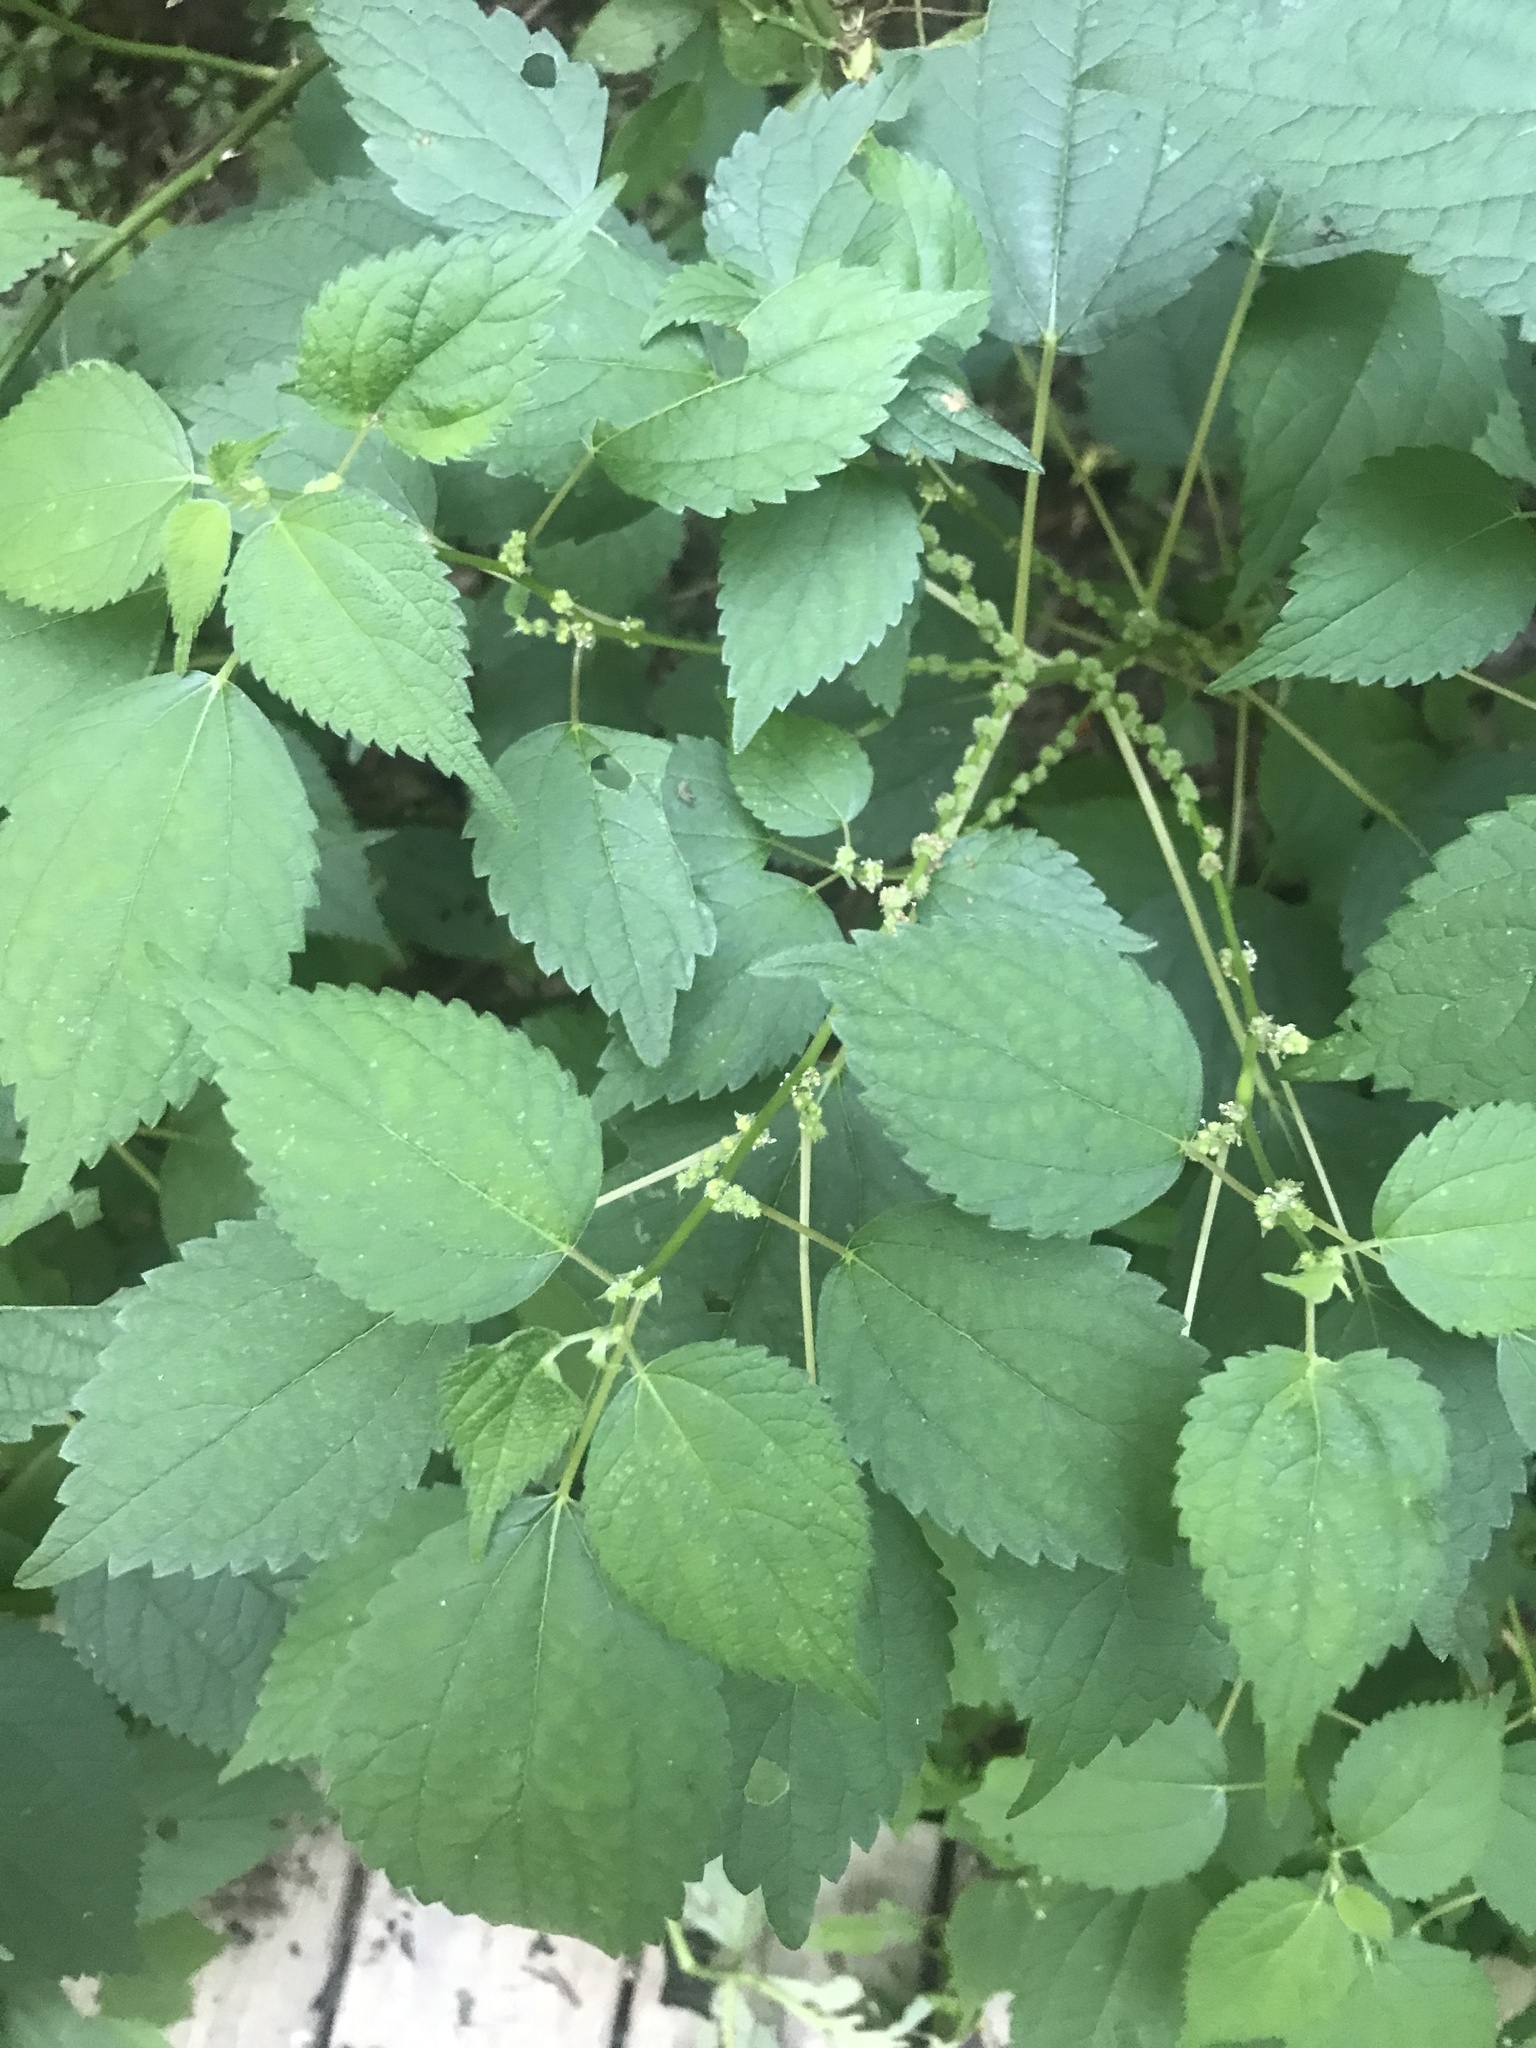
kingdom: Plantae
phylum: Tracheophyta
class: Magnoliopsida
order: Rosales
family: Urticaceae
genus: Boehmeria
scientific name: Boehmeria cylindrica
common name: Bog-hemp
